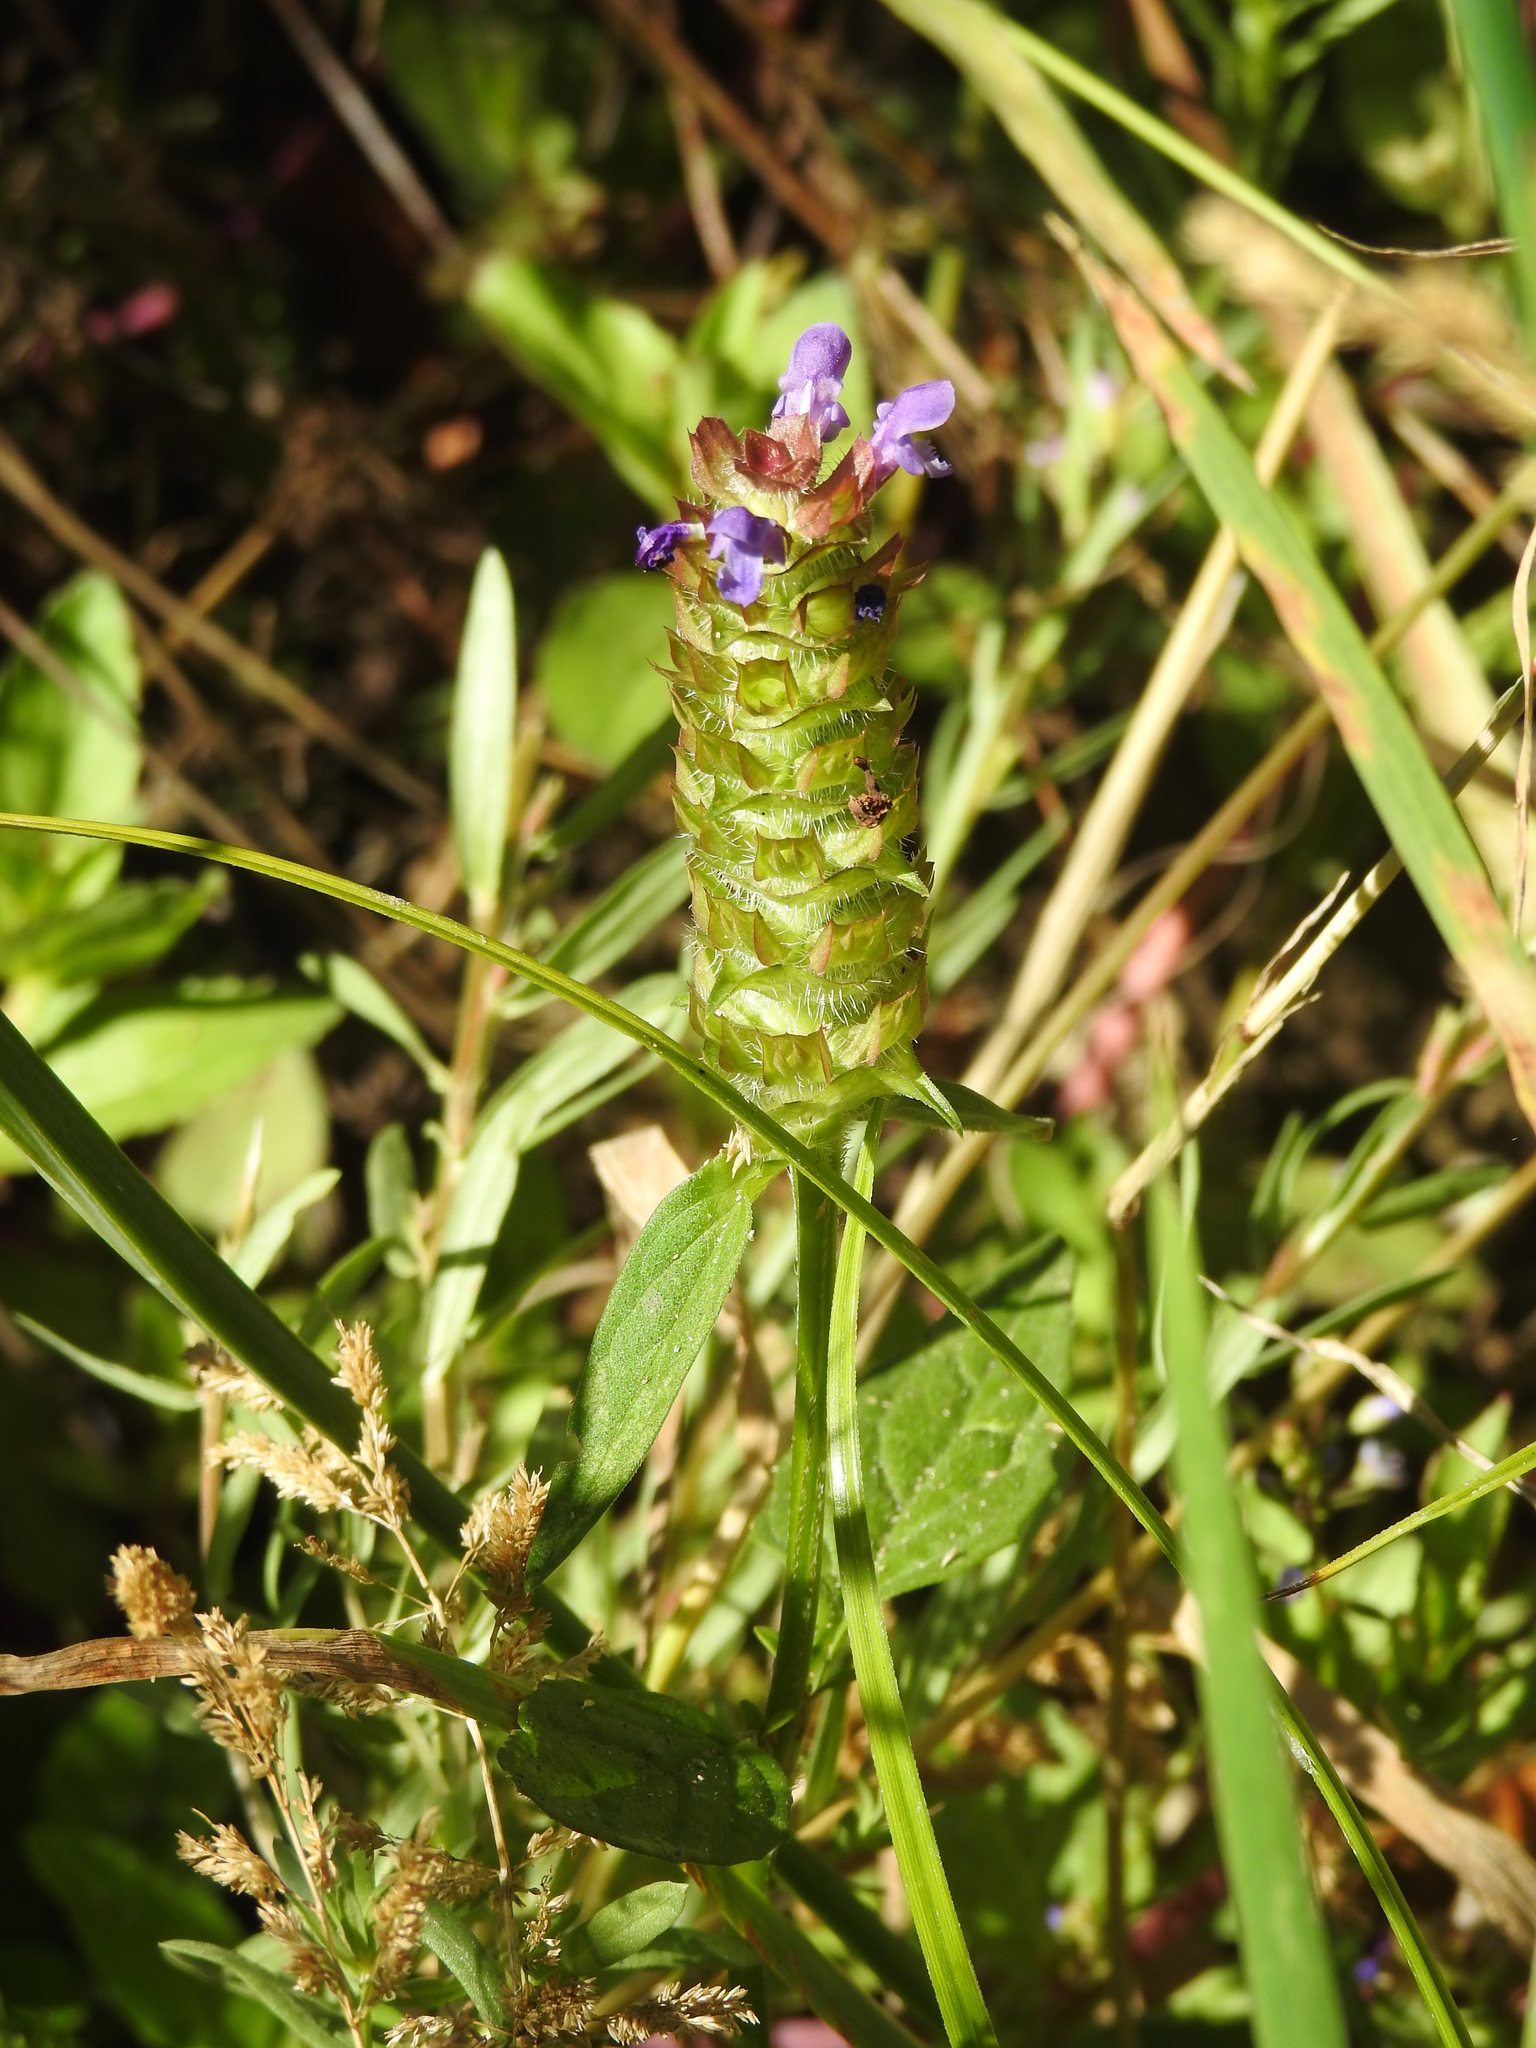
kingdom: Plantae
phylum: Tracheophyta
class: Magnoliopsida
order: Lamiales
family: Lamiaceae
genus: Prunella
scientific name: Prunella vulgaris
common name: Heal-all
